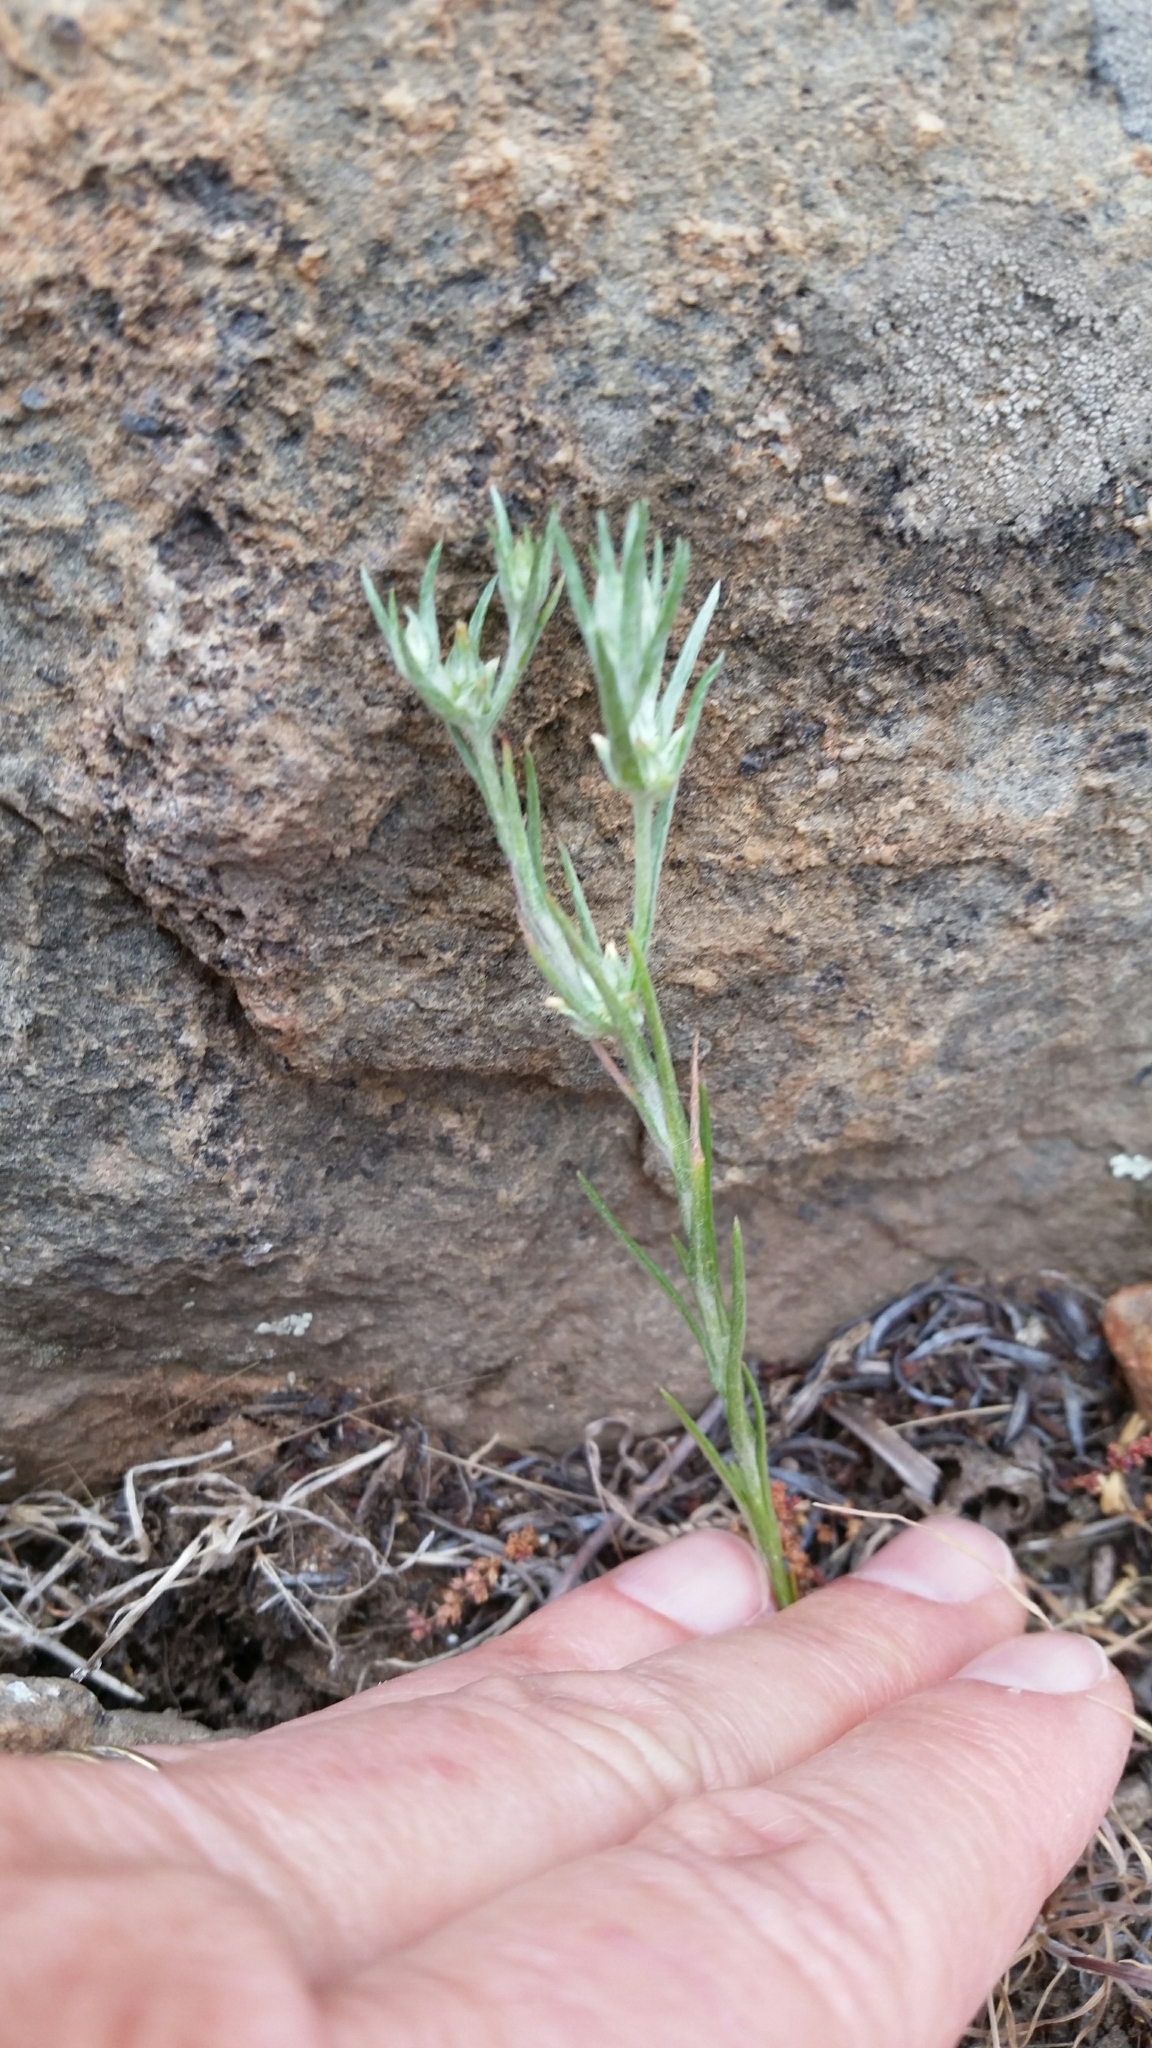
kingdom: Plantae
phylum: Tracheophyta
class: Magnoliopsida
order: Asterales
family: Asteraceae
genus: Logfia
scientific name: Logfia gallica
